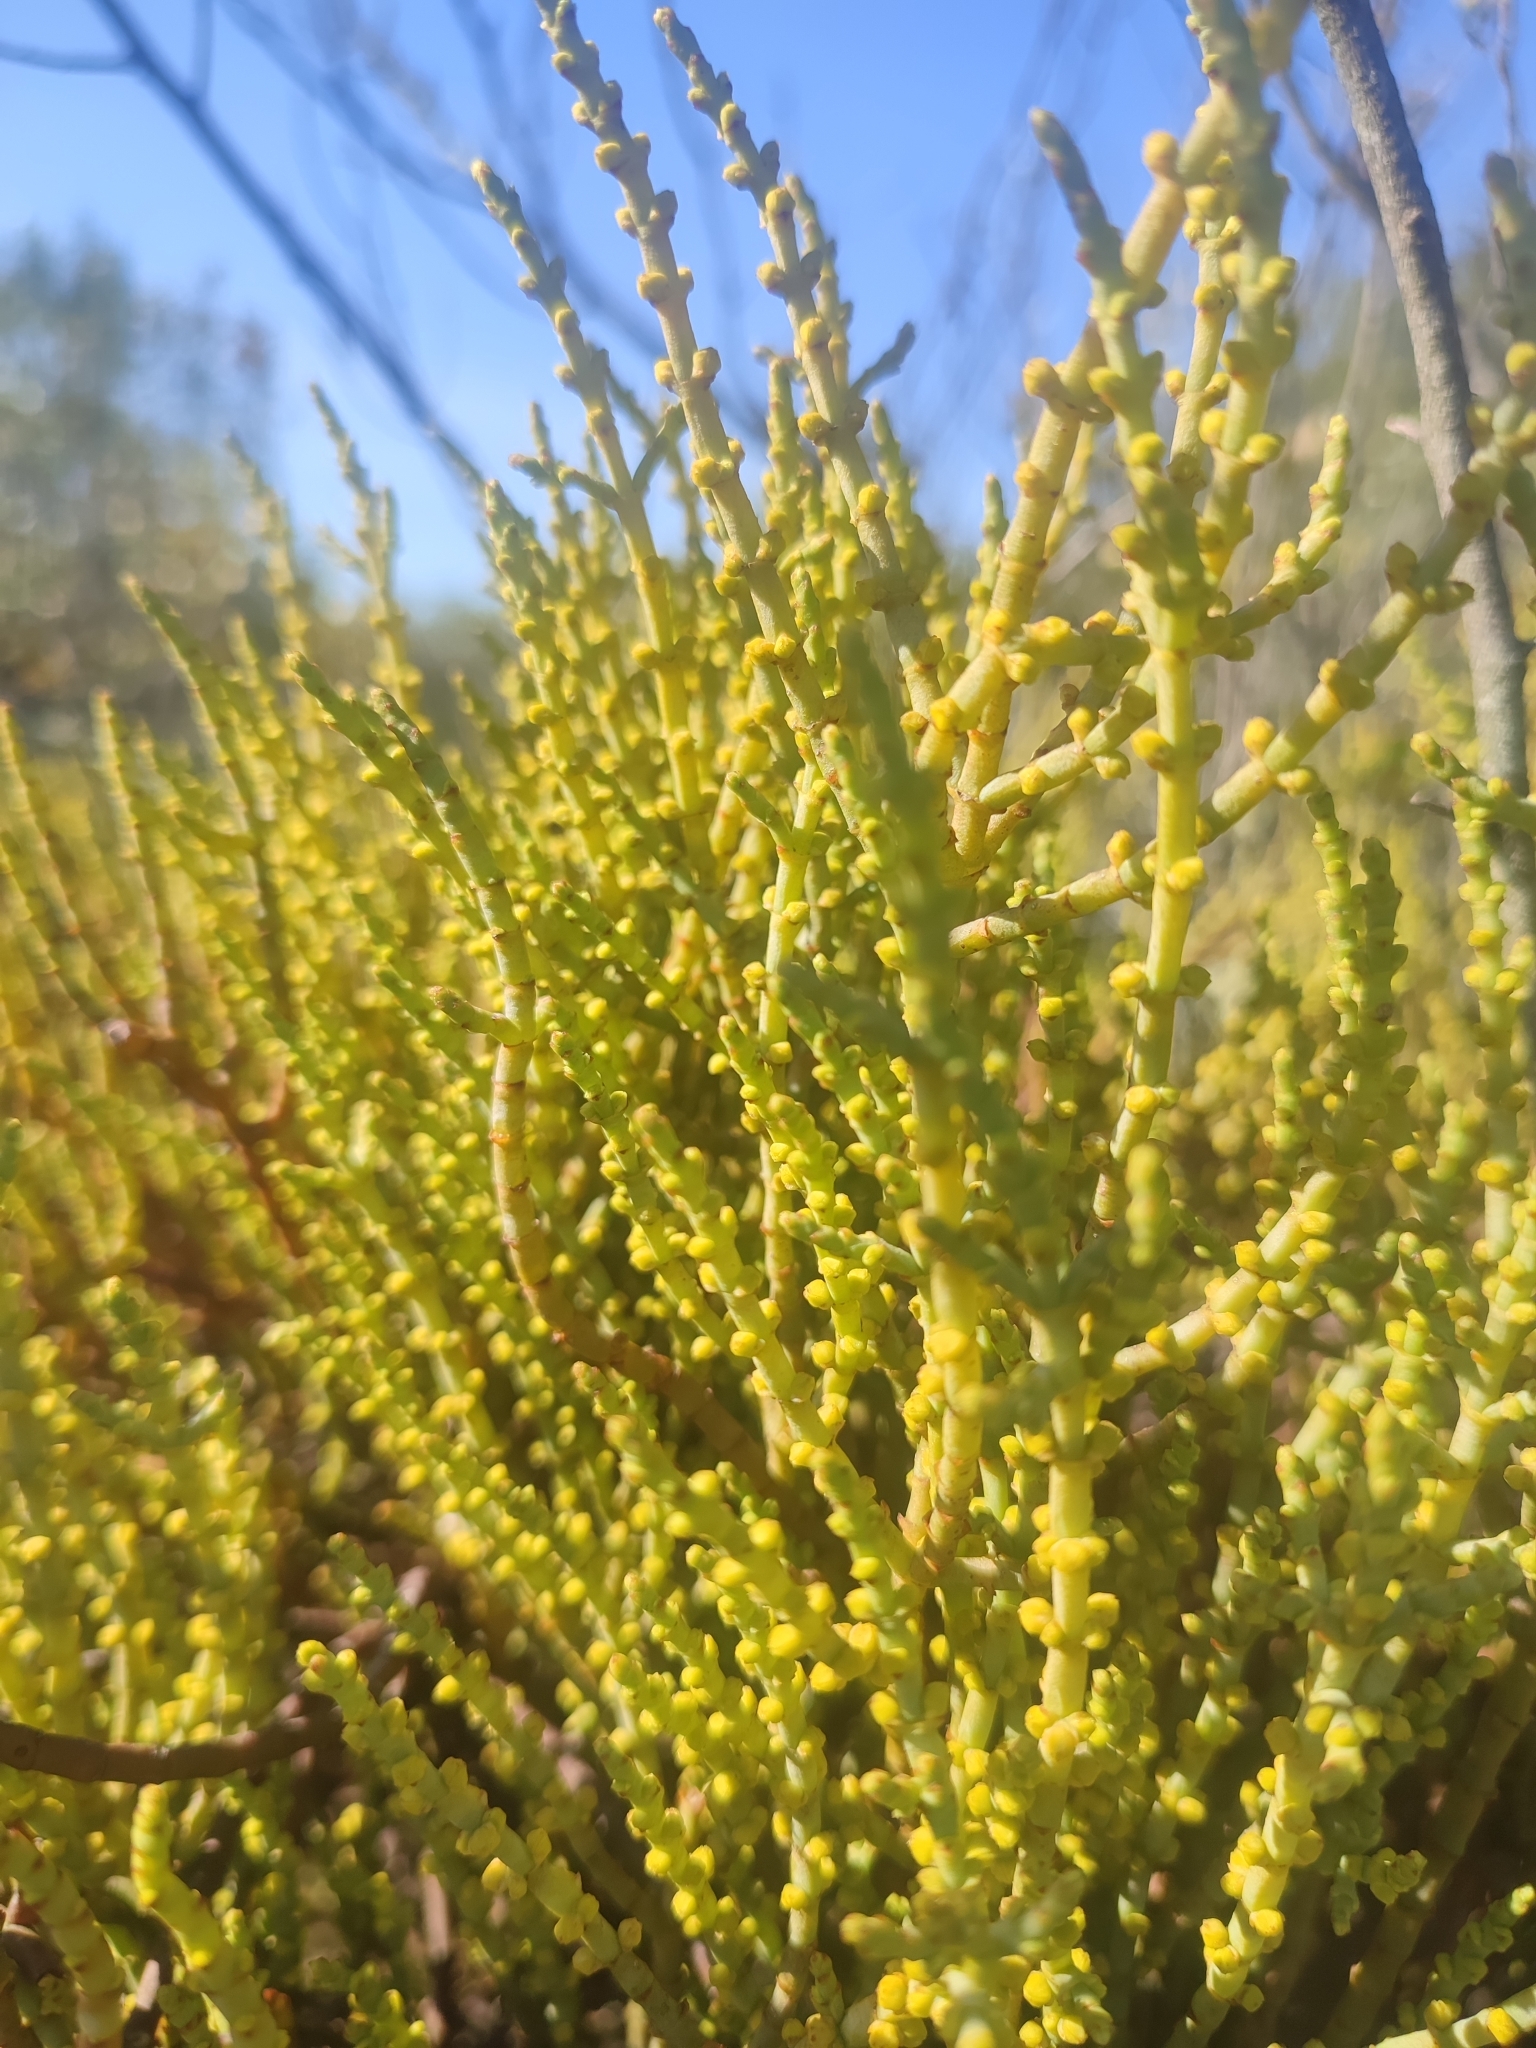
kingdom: Plantae
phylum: Tracheophyta
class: Magnoliopsida
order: Santalales
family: Viscaceae
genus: Viscum
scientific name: Viscum capense
